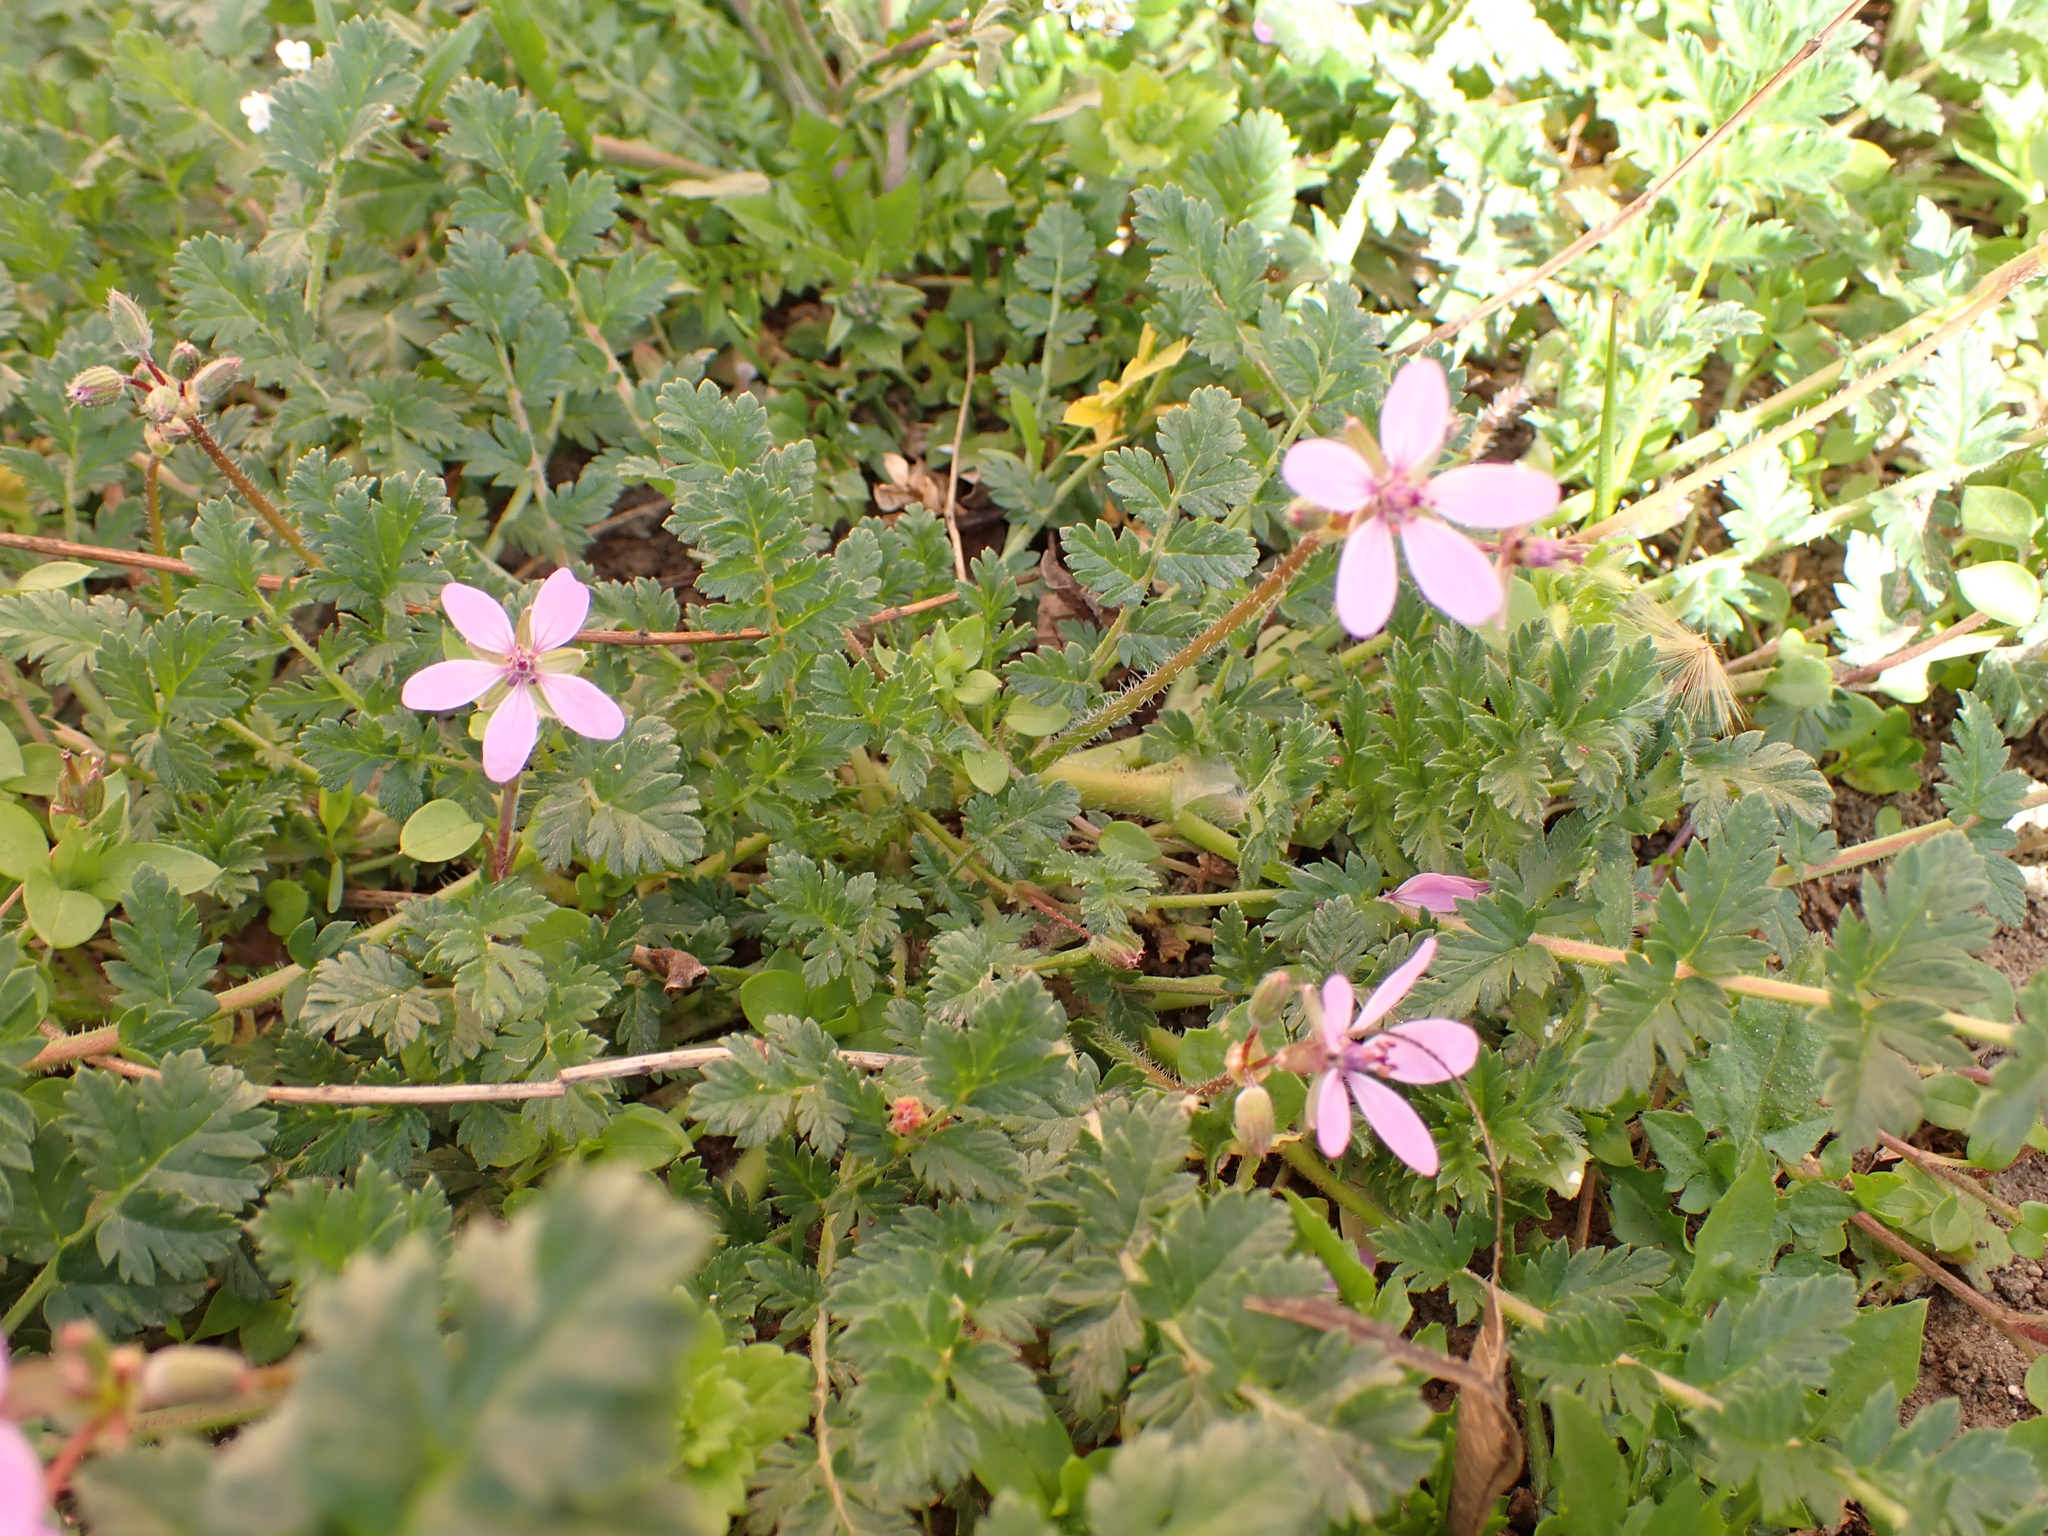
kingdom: Plantae
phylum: Tracheophyta
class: Magnoliopsida
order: Geraniales
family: Geraniaceae
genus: Erodium
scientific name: Erodium cicutarium
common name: Common stork's-bill
